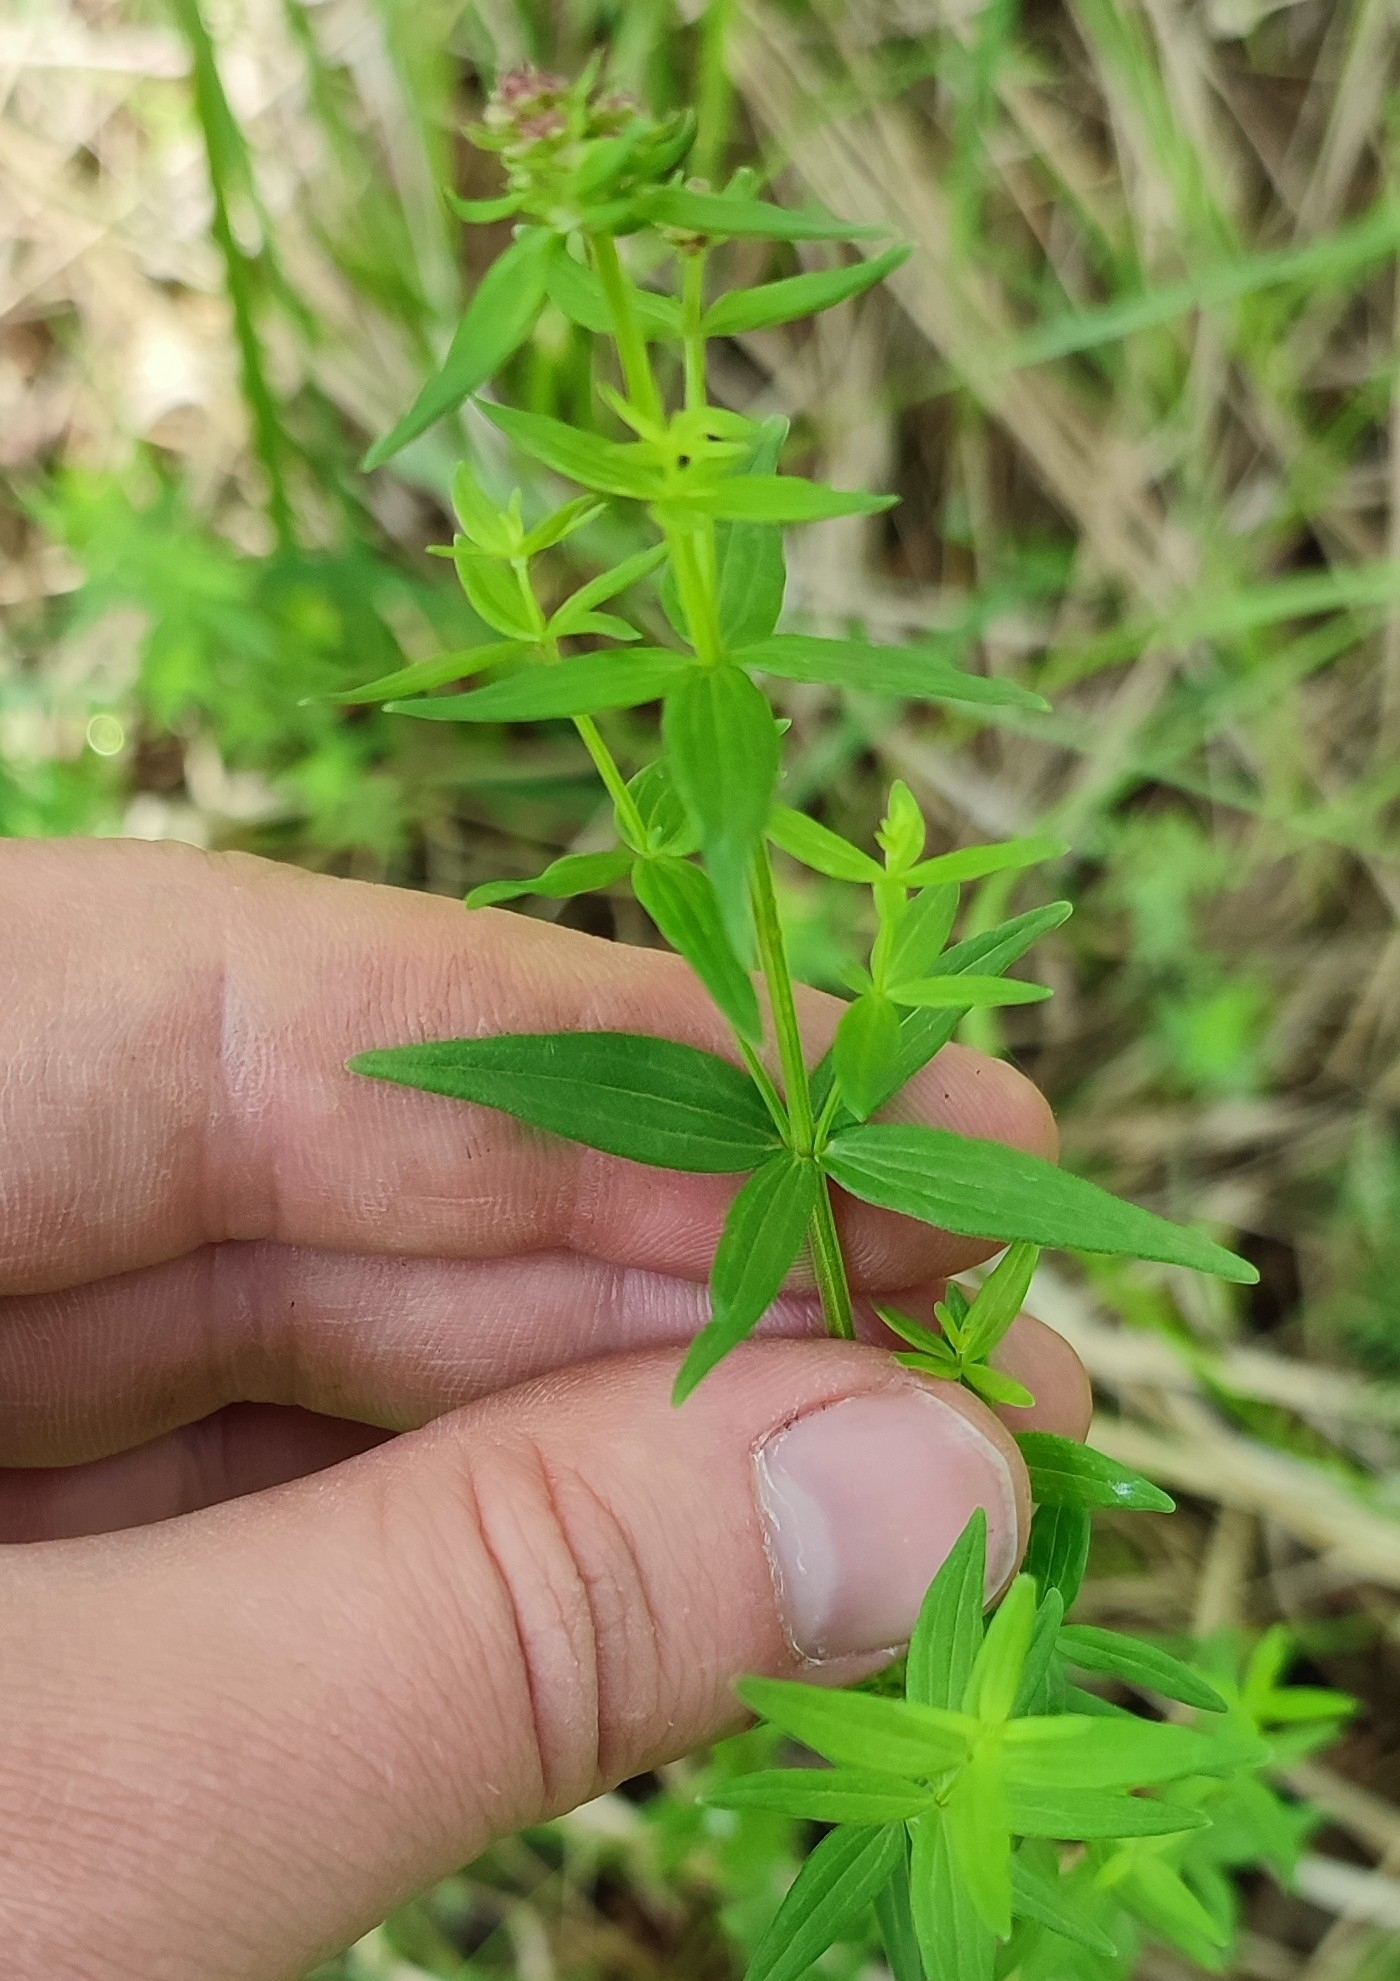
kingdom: Plantae
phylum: Tracheophyta
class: Magnoliopsida
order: Gentianales
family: Rubiaceae
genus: Galium
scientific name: Galium boreale
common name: Northern bedstraw
